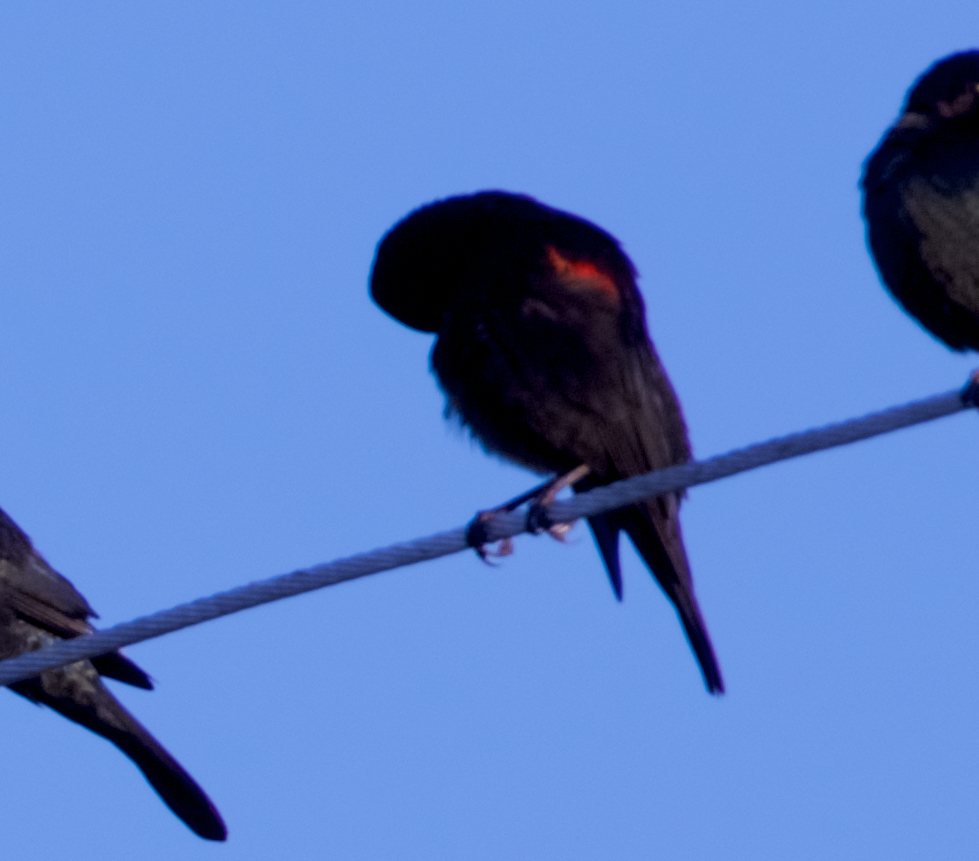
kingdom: Animalia
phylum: Chordata
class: Aves
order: Passeriformes
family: Icteridae
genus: Agelaius
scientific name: Agelaius phoeniceus
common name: Red-winged blackbird
